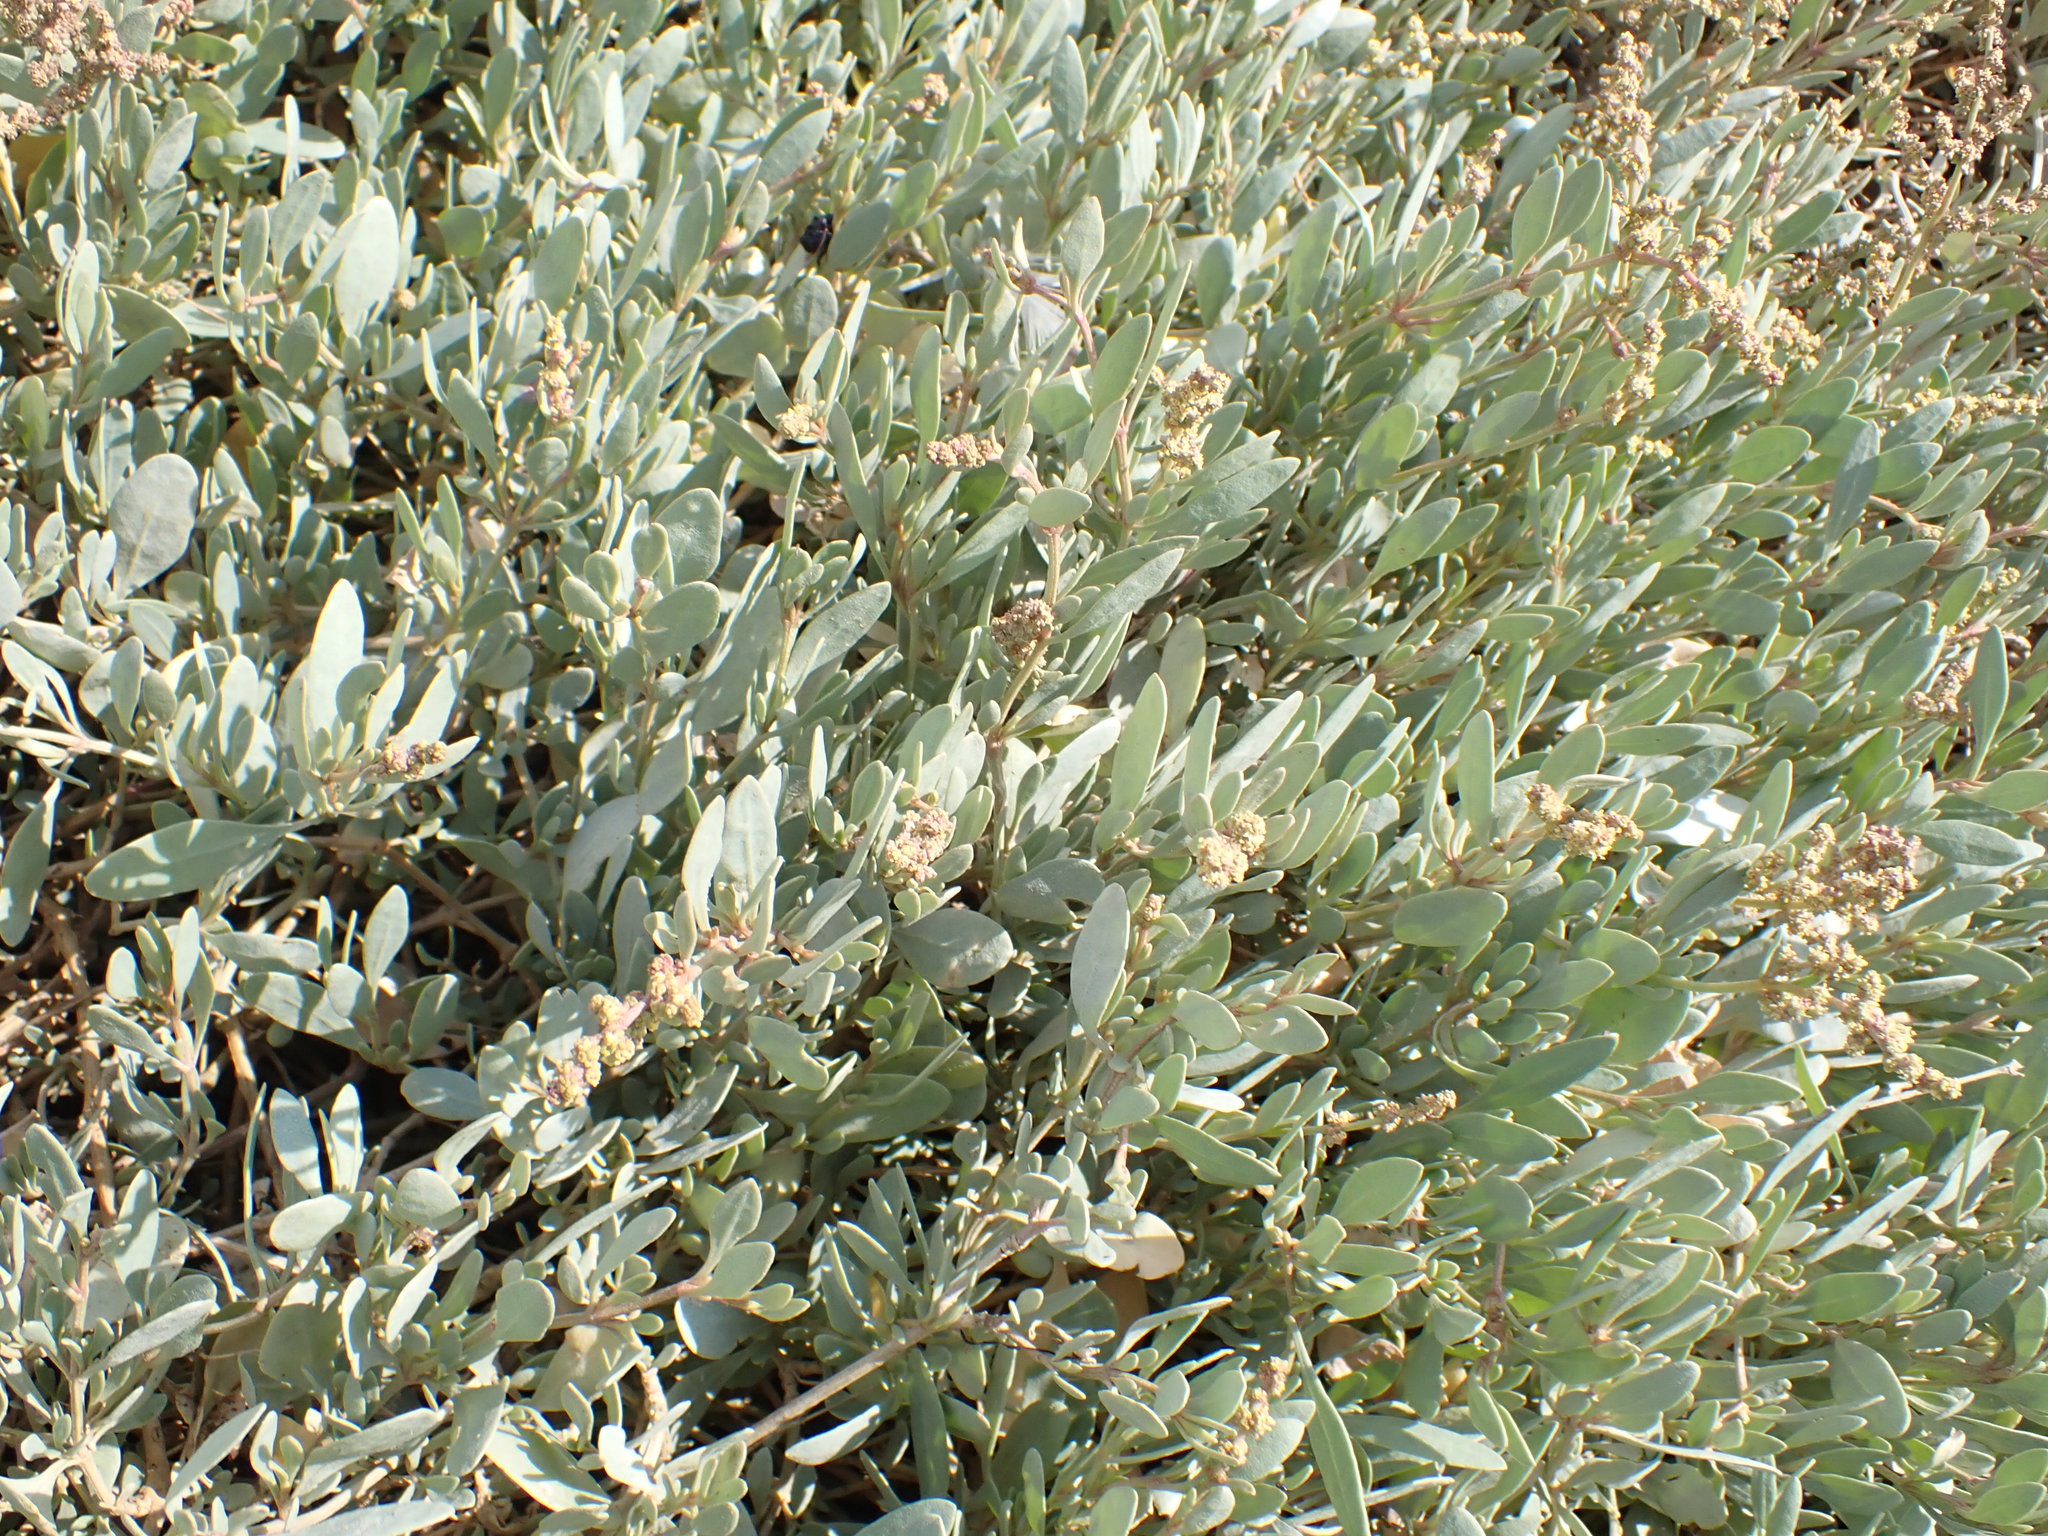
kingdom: Plantae
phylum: Tracheophyta
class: Magnoliopsida
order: Caryophyllales
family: Amaranthaceae
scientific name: Amaranthaceae
